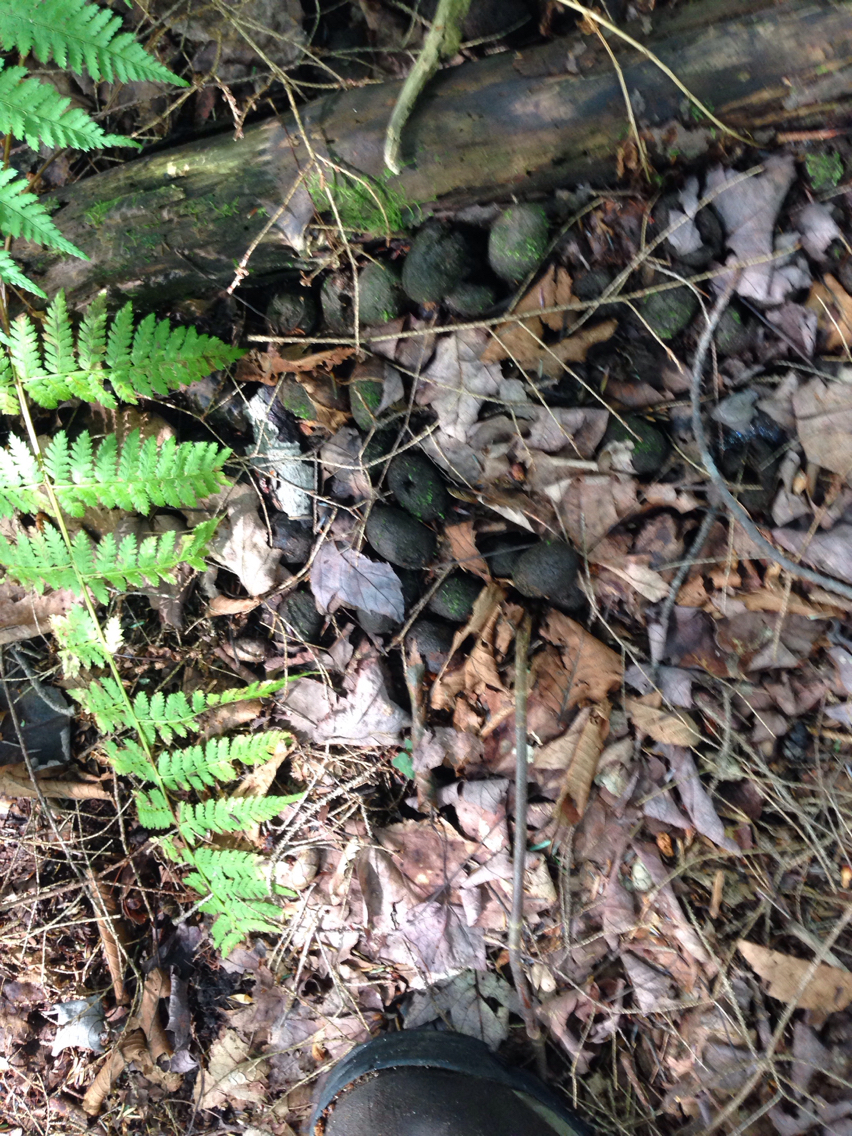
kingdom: Animalia
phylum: Chordata
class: Mammalia
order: Artiodactyla
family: Cervidae
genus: Alces
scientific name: Alces alces
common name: Moose
